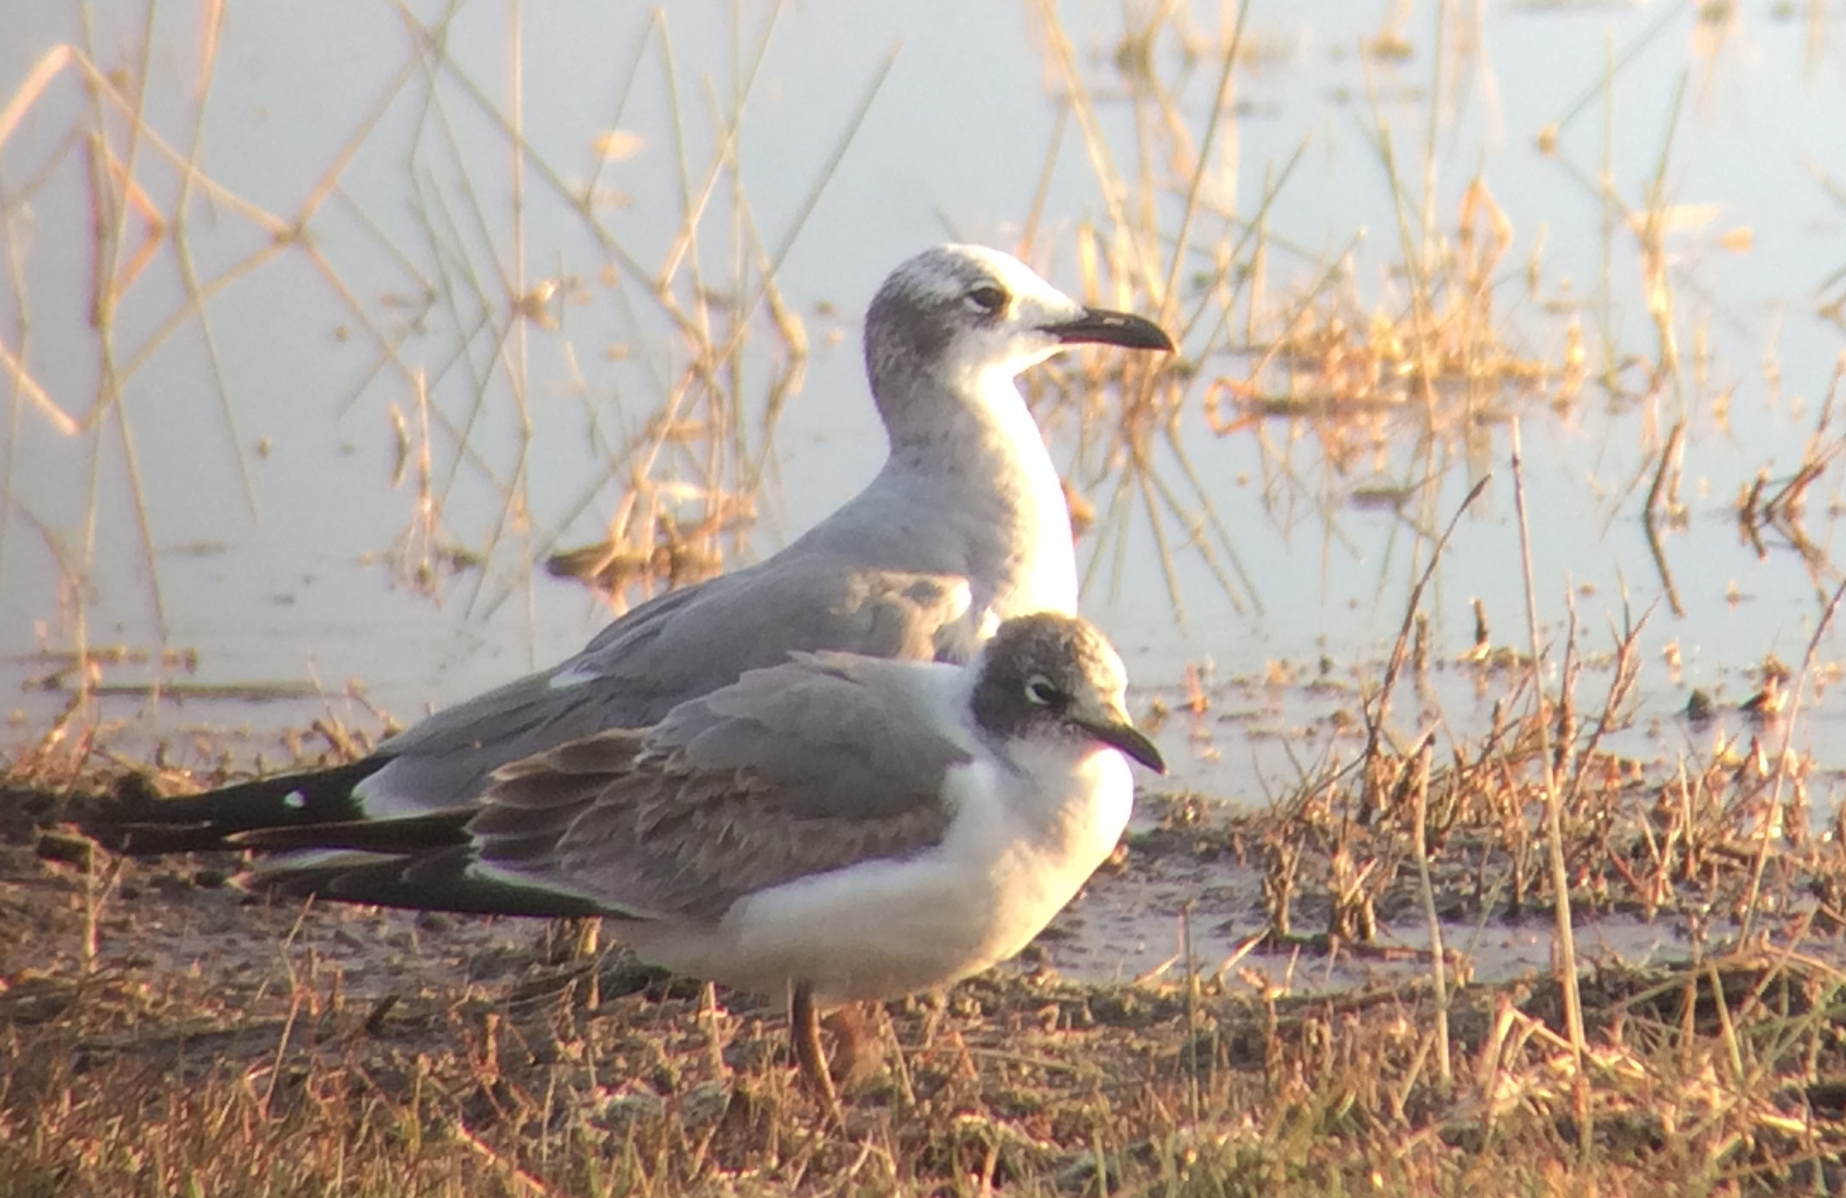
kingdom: Animalia
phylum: Chordata
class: Aves
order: Charadriiformes
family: Laridae
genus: Leucophaeus
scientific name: Leucophaeus pipixcan
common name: Franklin's gull
